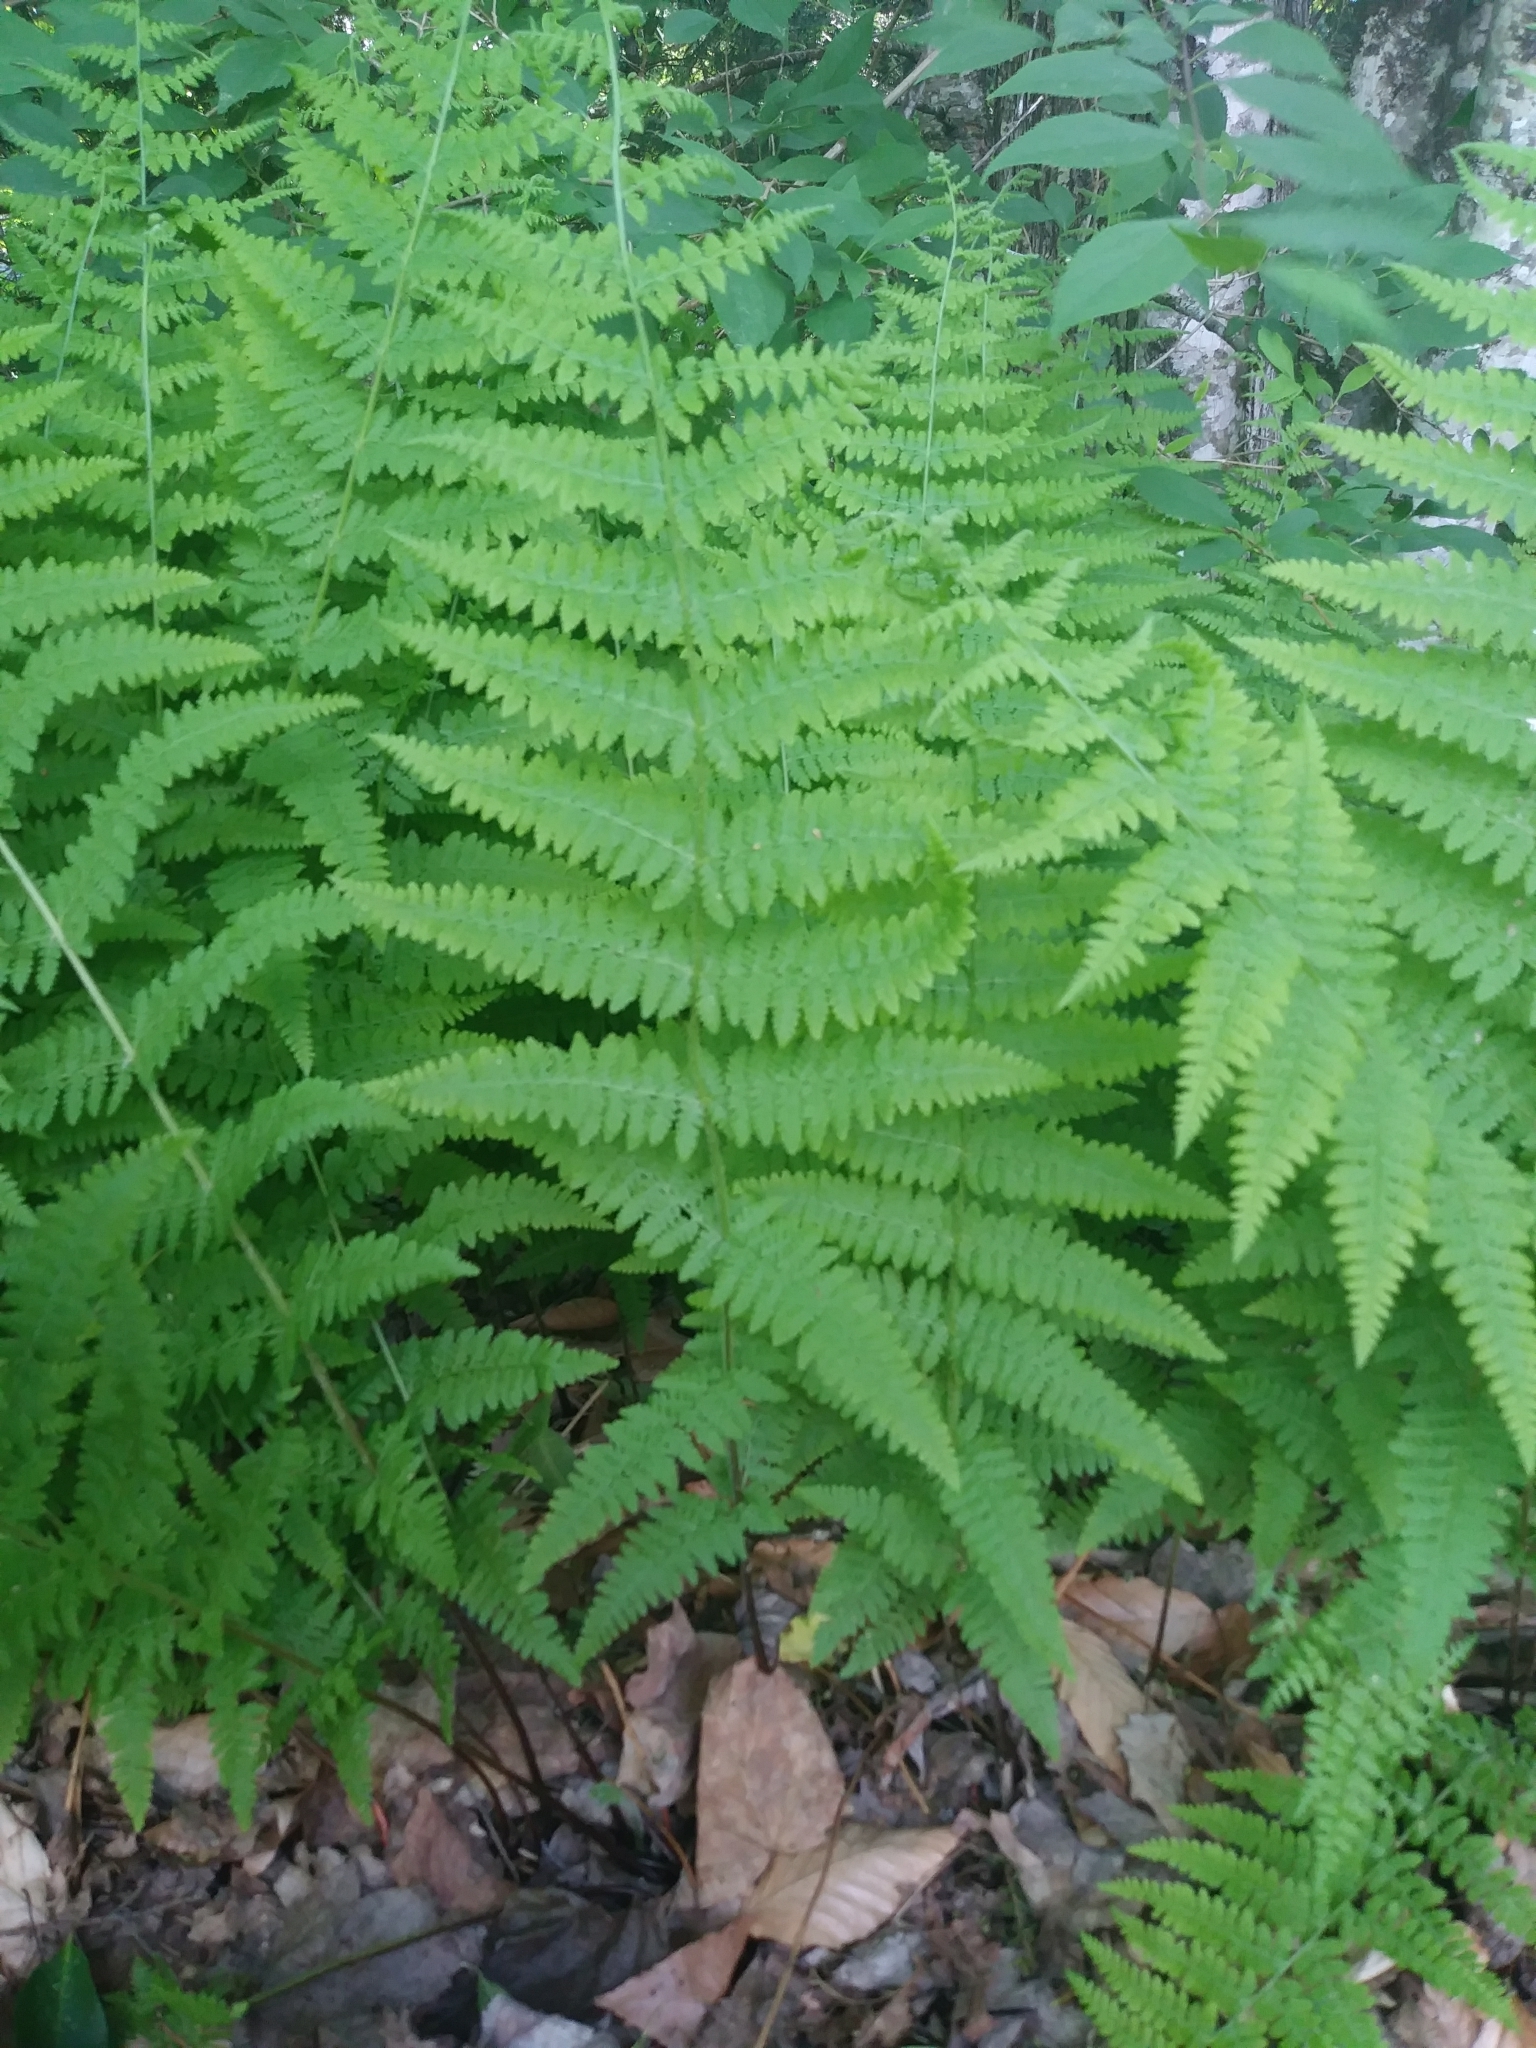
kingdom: Plantae
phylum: Tracheophyta
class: Polypodiopsida
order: Polypodiales
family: Dennstaedtiaceae
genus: Sitobolium
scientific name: Sitobolium punctilobum
